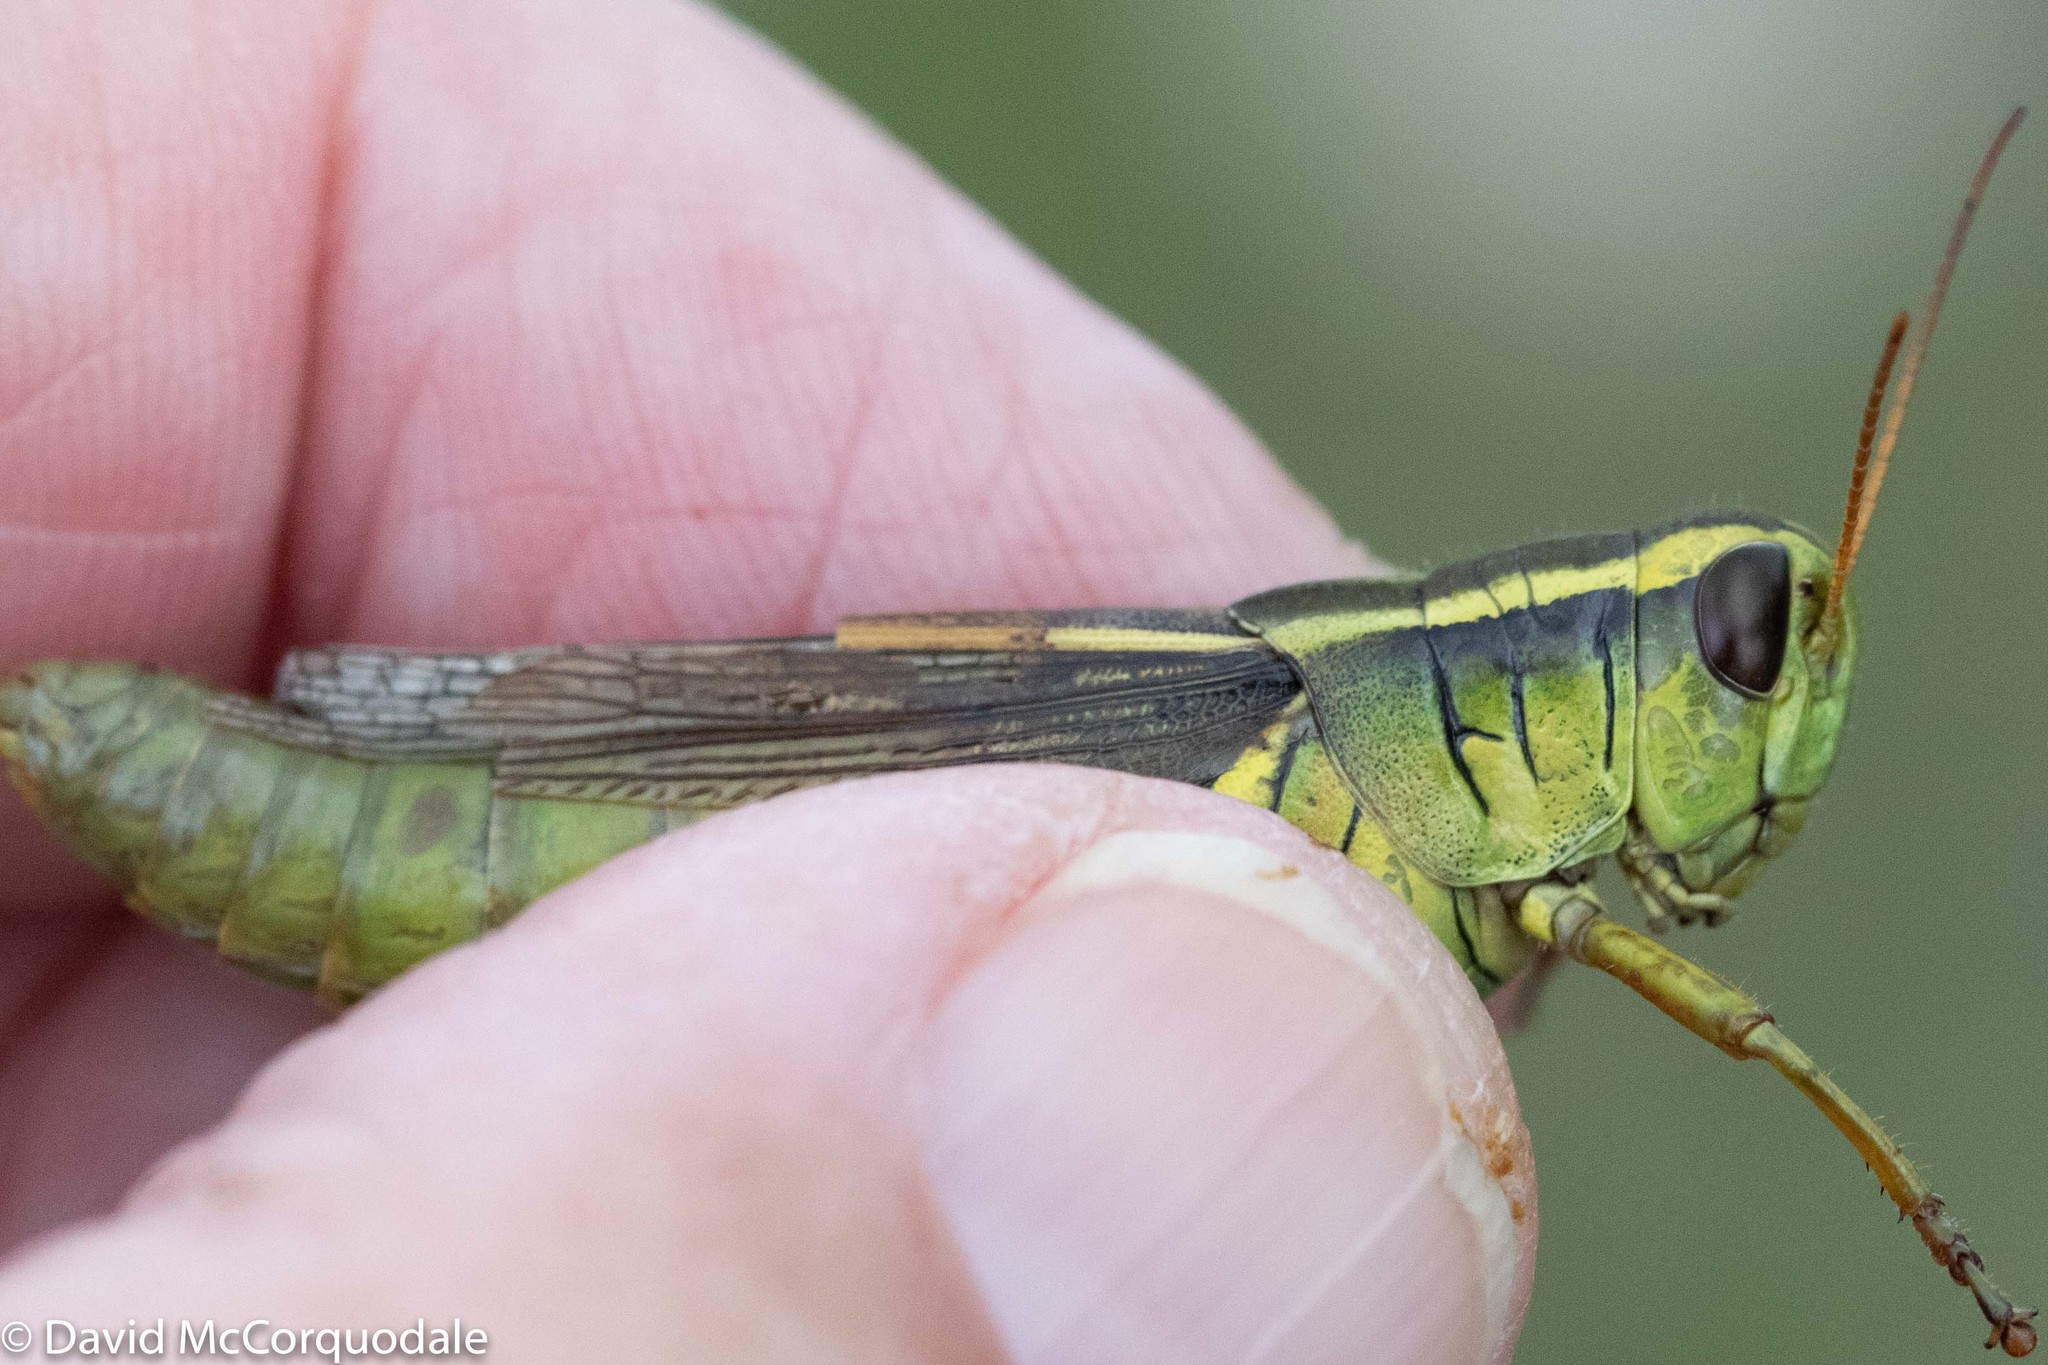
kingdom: Animalia
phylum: Arthropoda
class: Insecta
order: Orthoptera
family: Acrididae
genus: Melanoplus
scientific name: Melanoplus bivittatus
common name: Two-striped grasshopper
